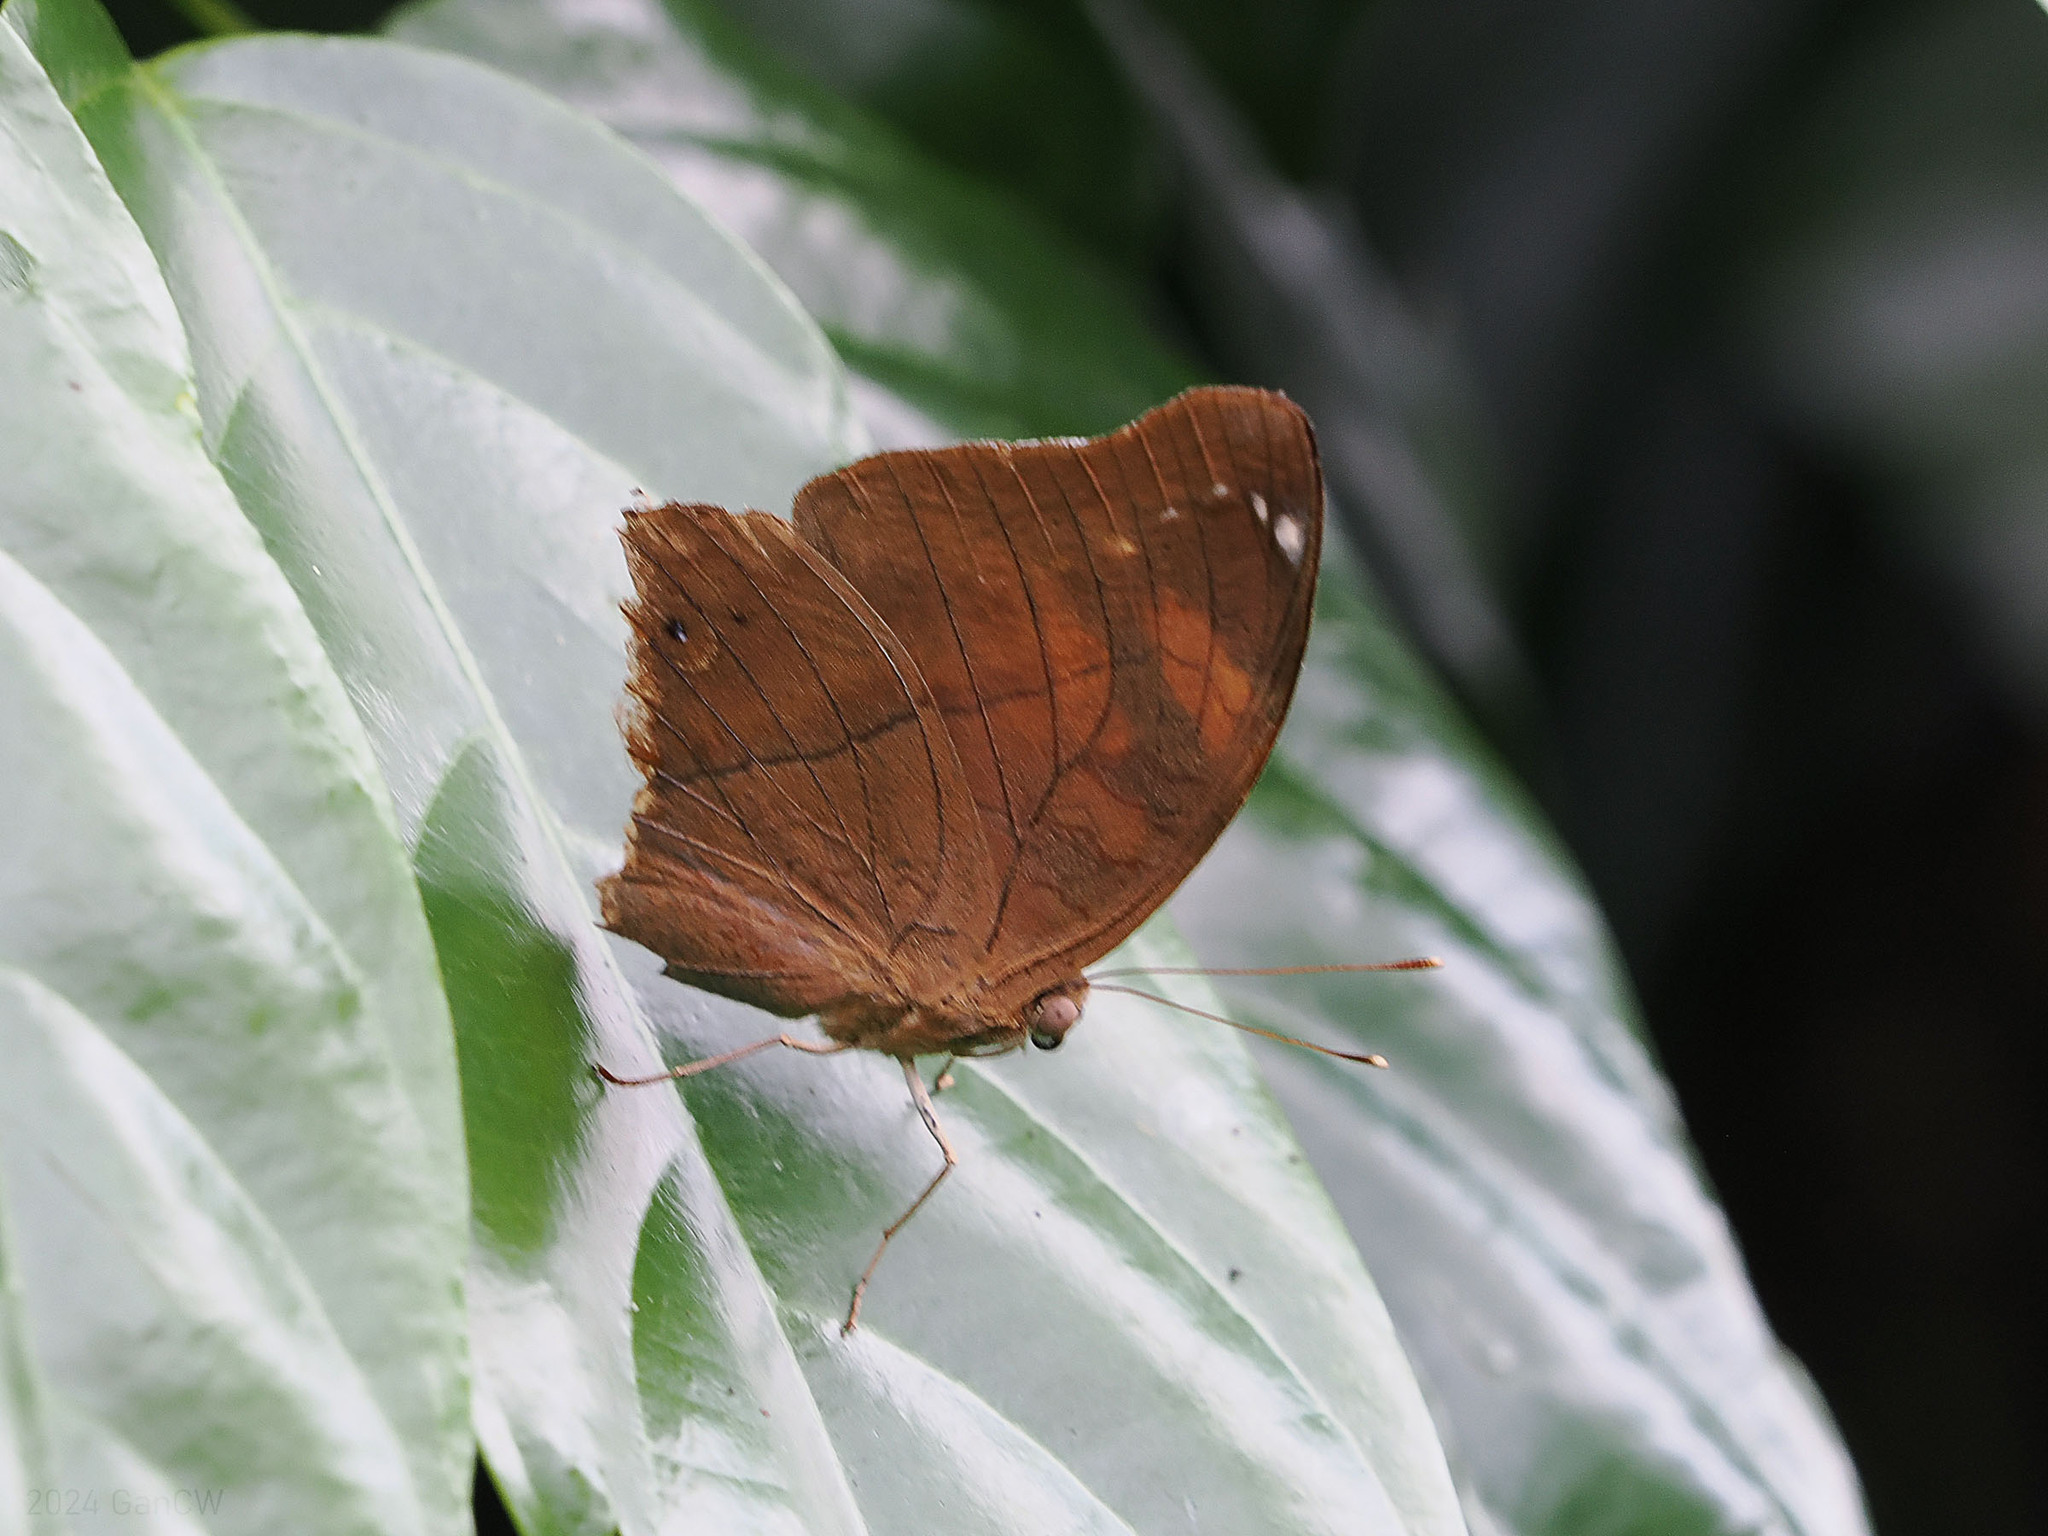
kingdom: Animalia
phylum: Arthropoda
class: Insecta
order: Lepidoptera
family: Nymphalidae
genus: Doleschallia
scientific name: Doleschallia bisaltide
